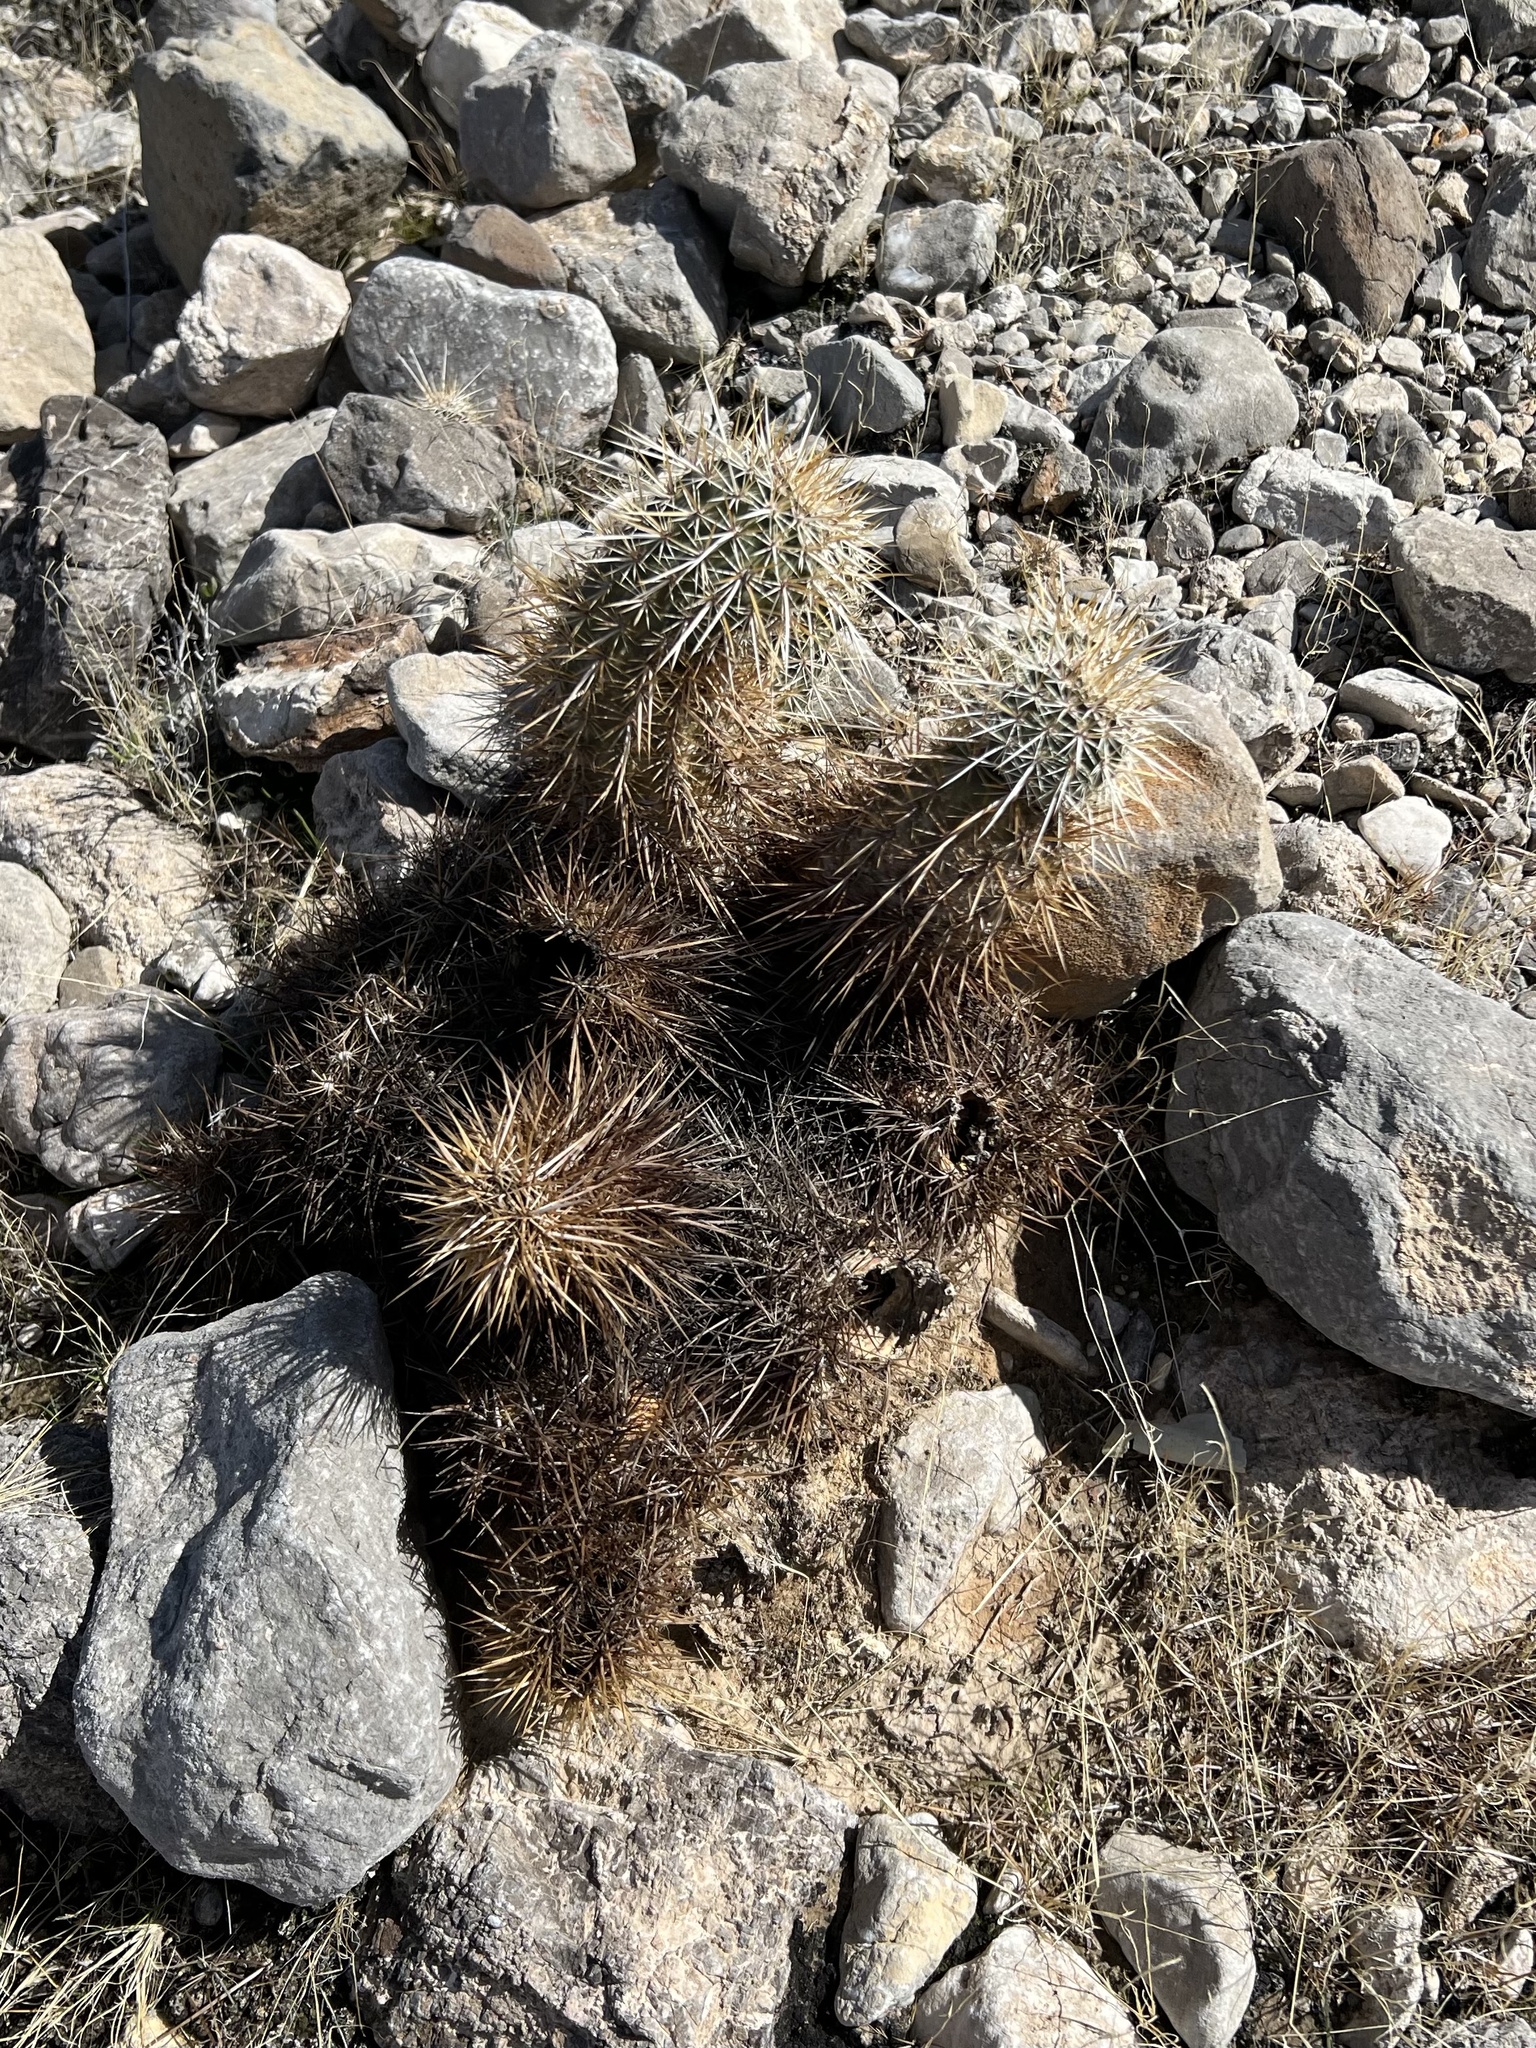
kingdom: Plantae
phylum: Tracheophyta
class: Magnoliopsida
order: Caryophyllales
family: Cactaceae
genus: Echinocereus
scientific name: Echinocereus engelmannii
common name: Engelmann's hedgehog cactus
